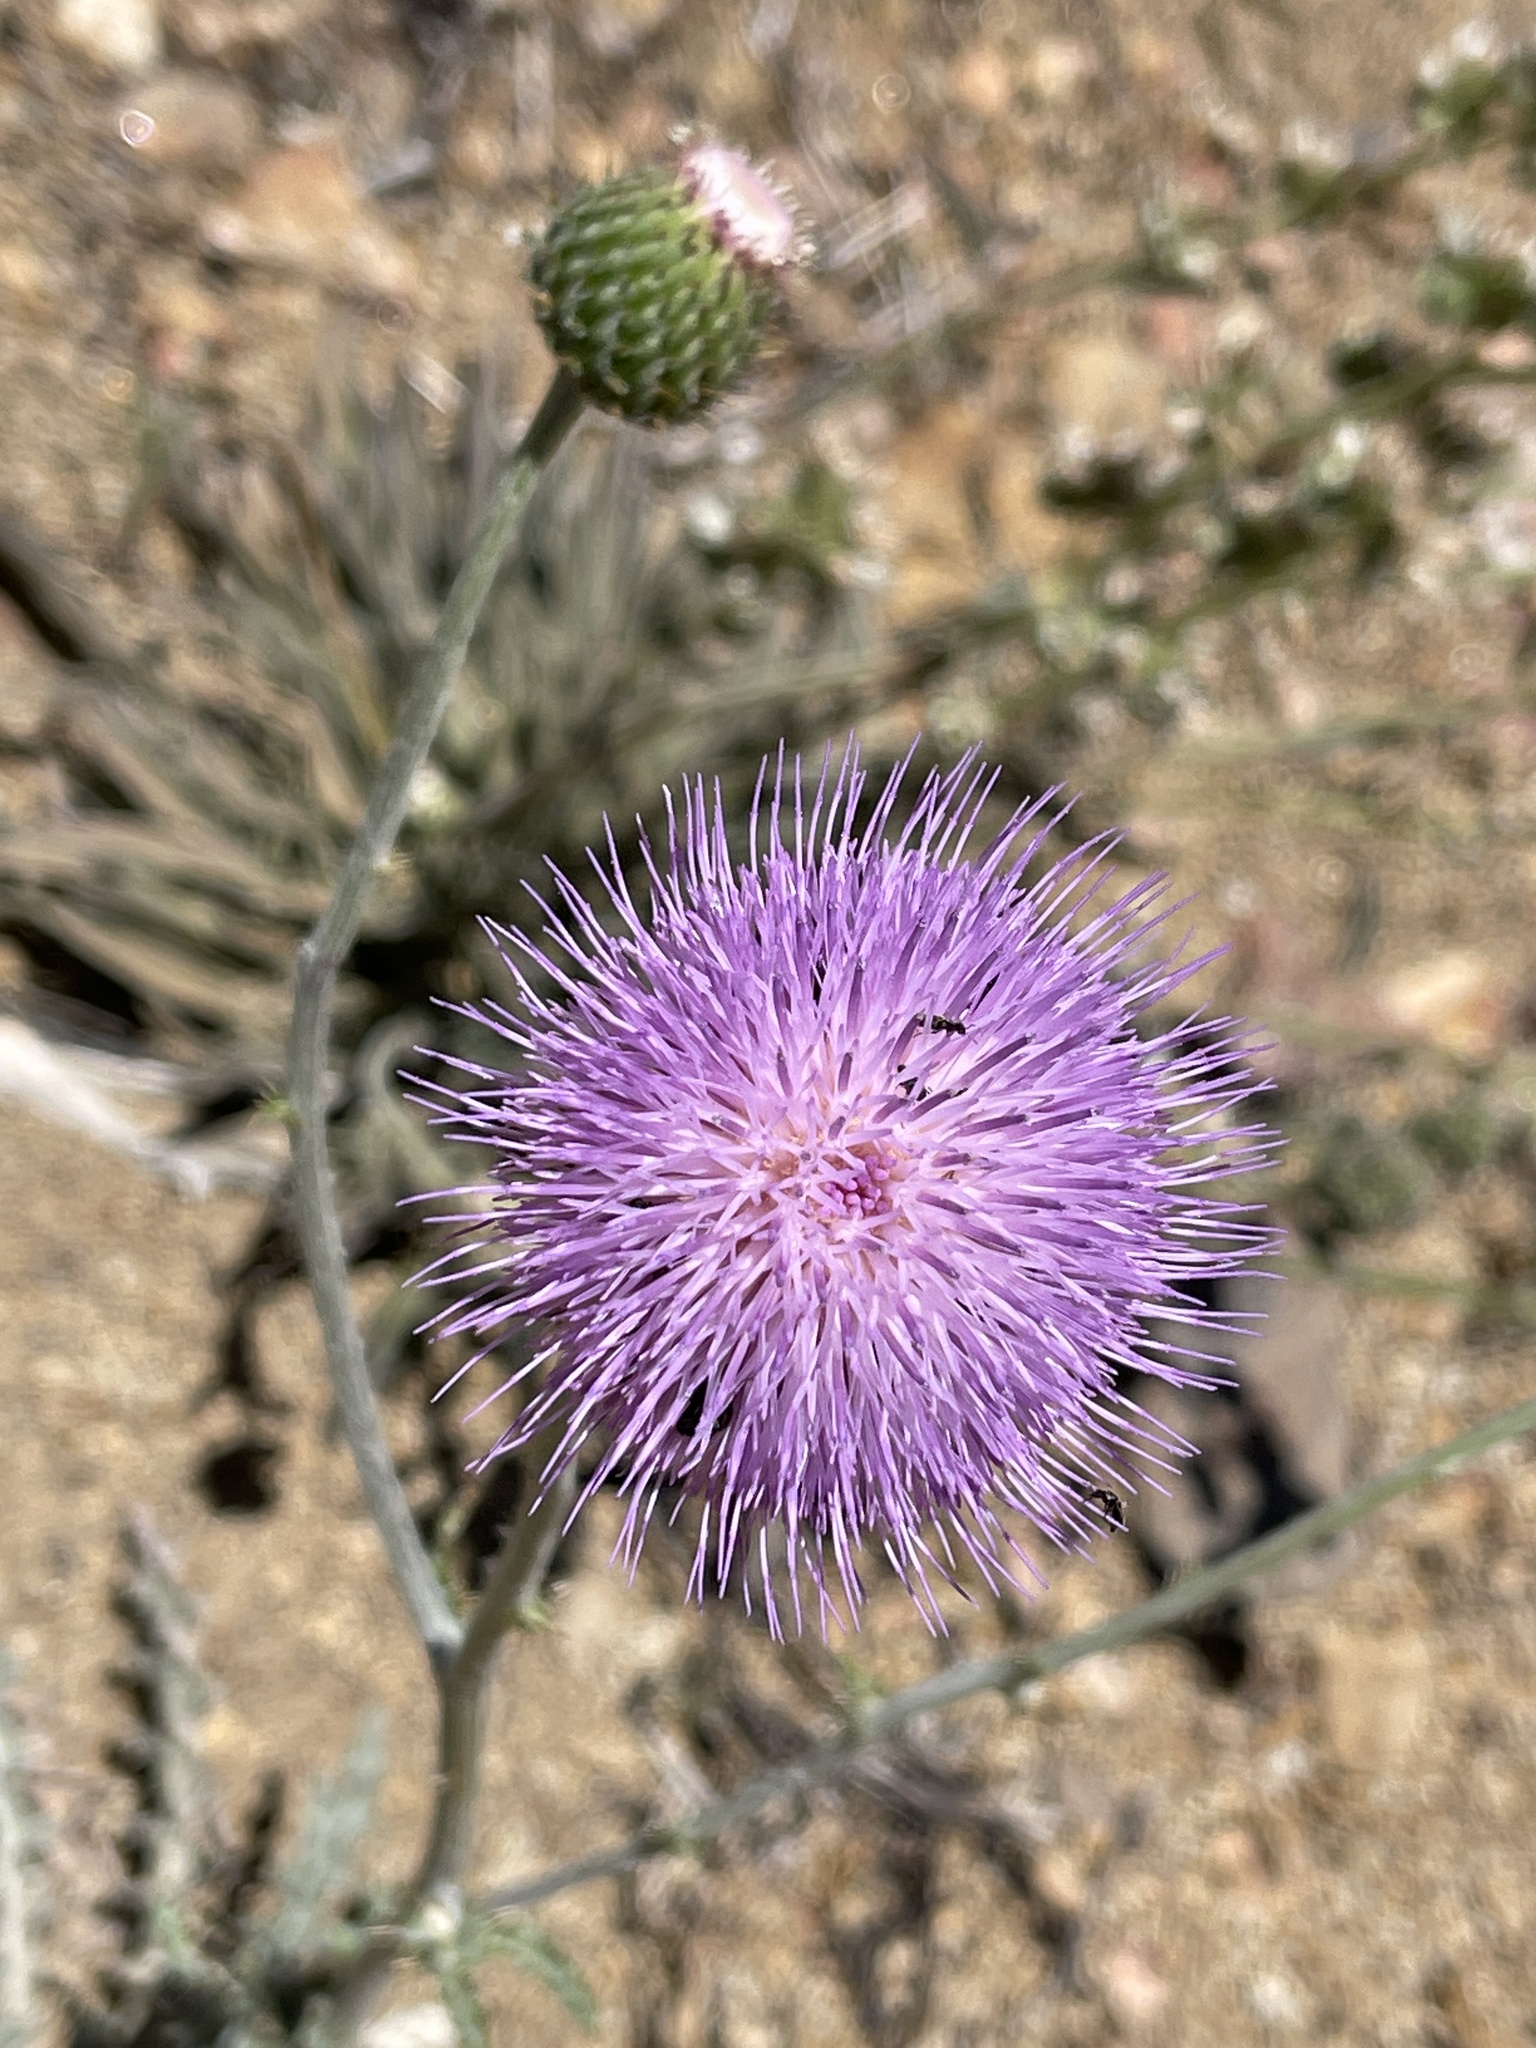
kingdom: Plantae
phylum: Tracheophyta
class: Magnoliopsida
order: Asterales
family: Asteraceae
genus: Cirsium
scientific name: Cirsium occidentale
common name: Western thistle
